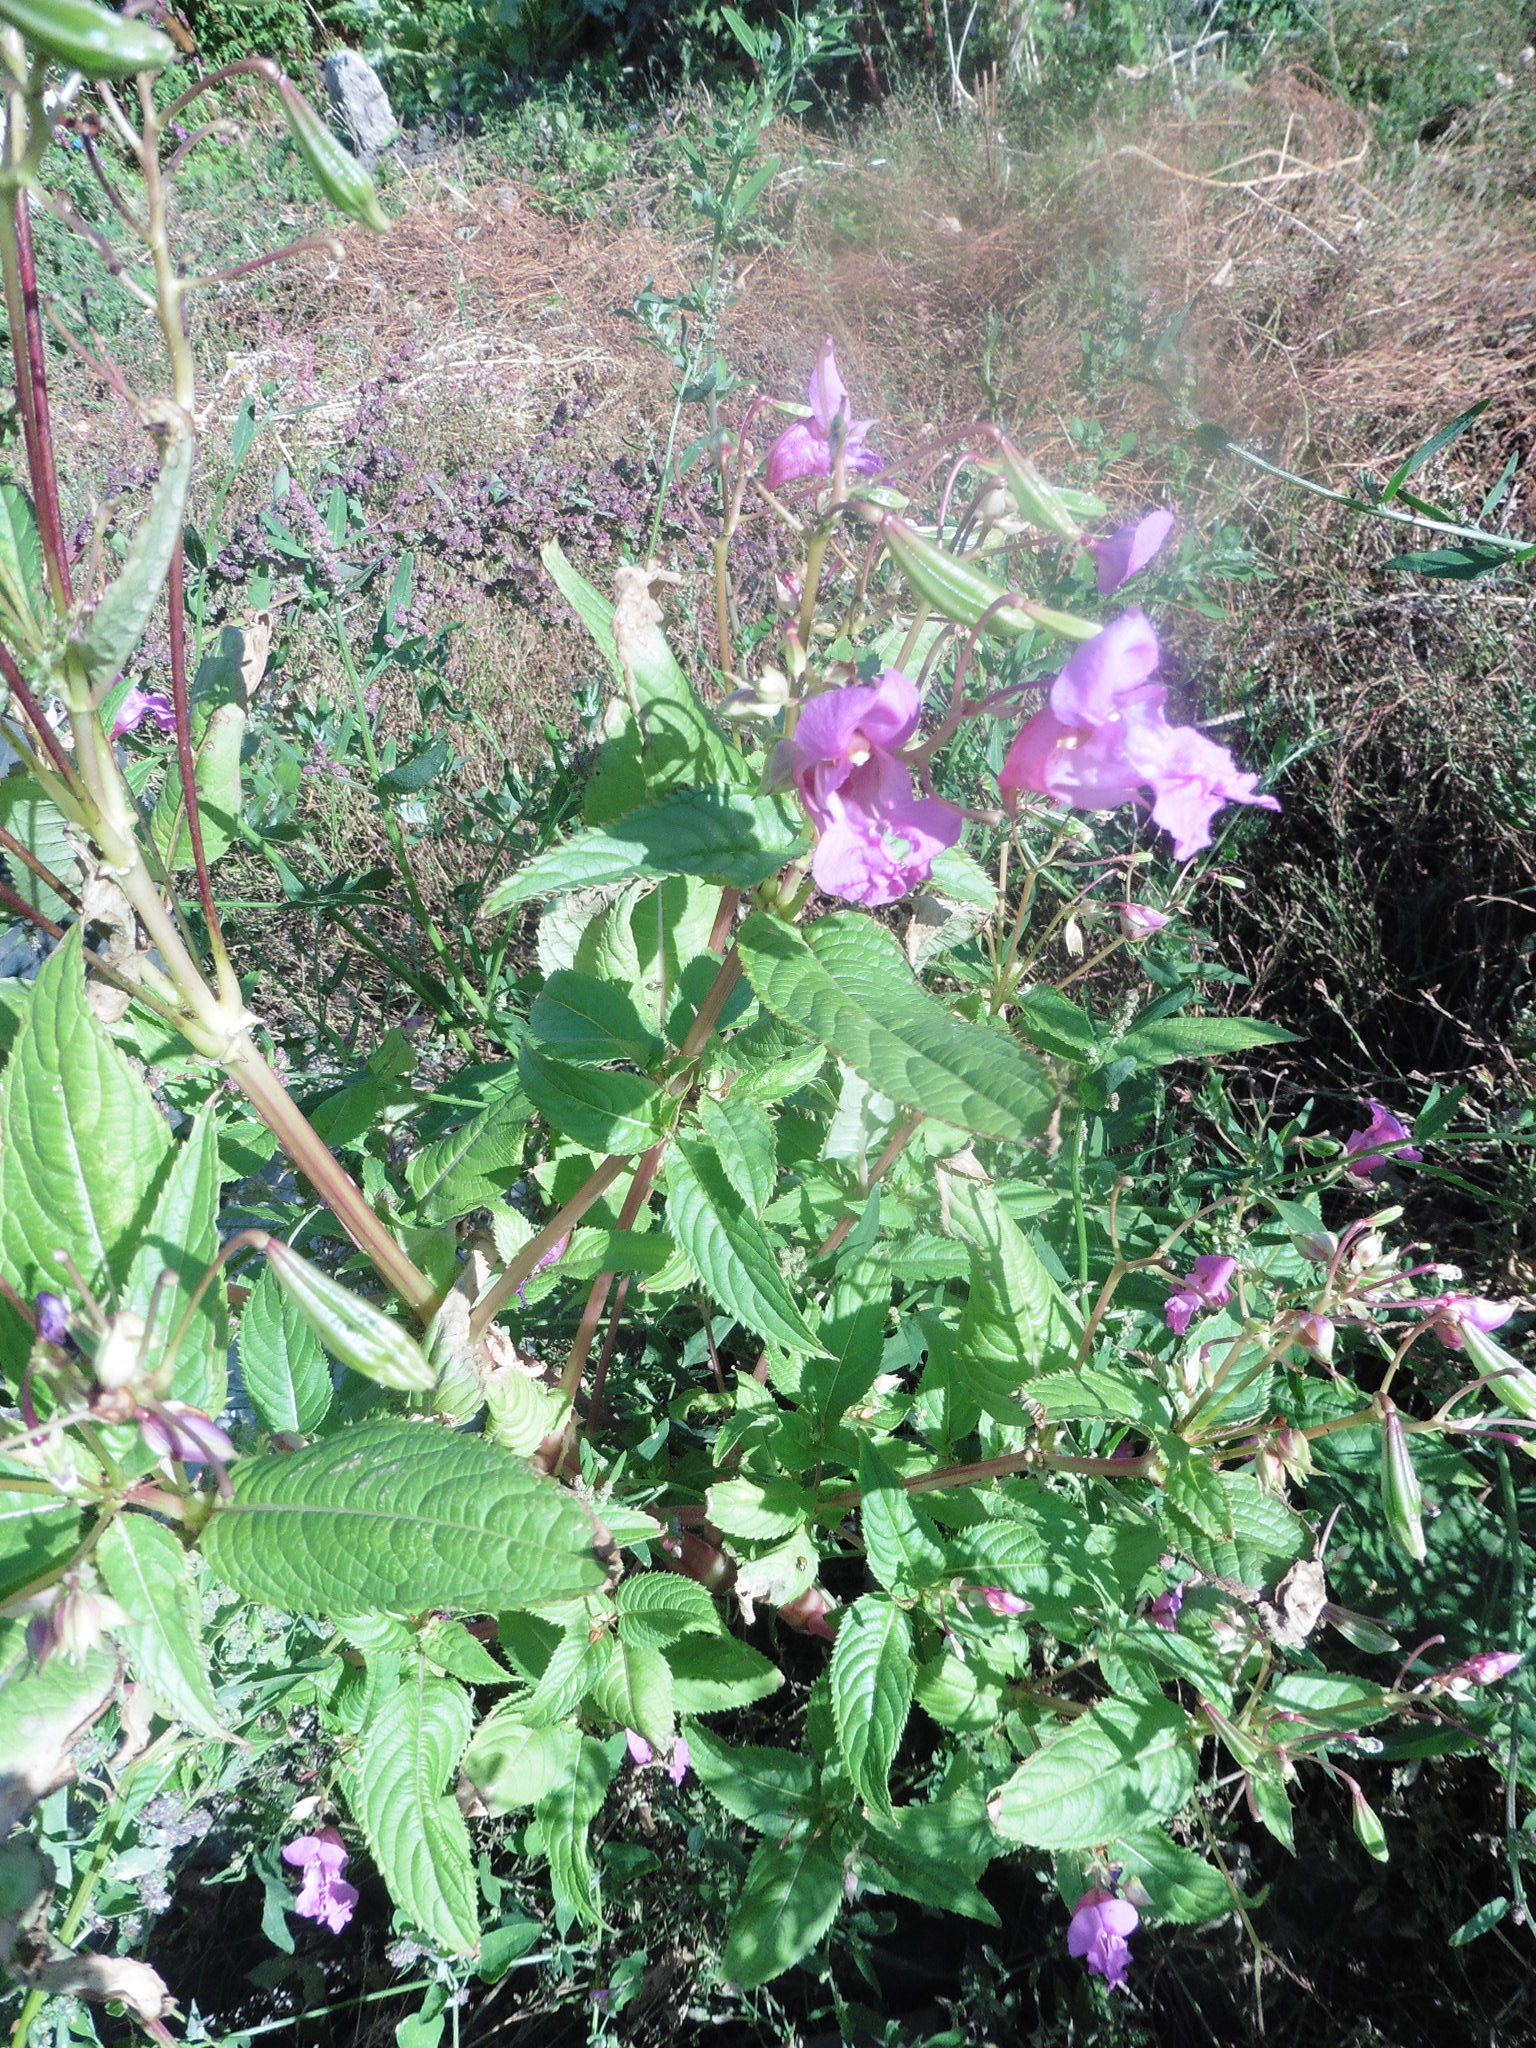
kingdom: Plantae
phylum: Tracheophyta
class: Magnoliopsida
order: Ericales
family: Balsaminaceae
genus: Impatiens
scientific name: Impatiens glandulifera
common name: Himalayan balsam
